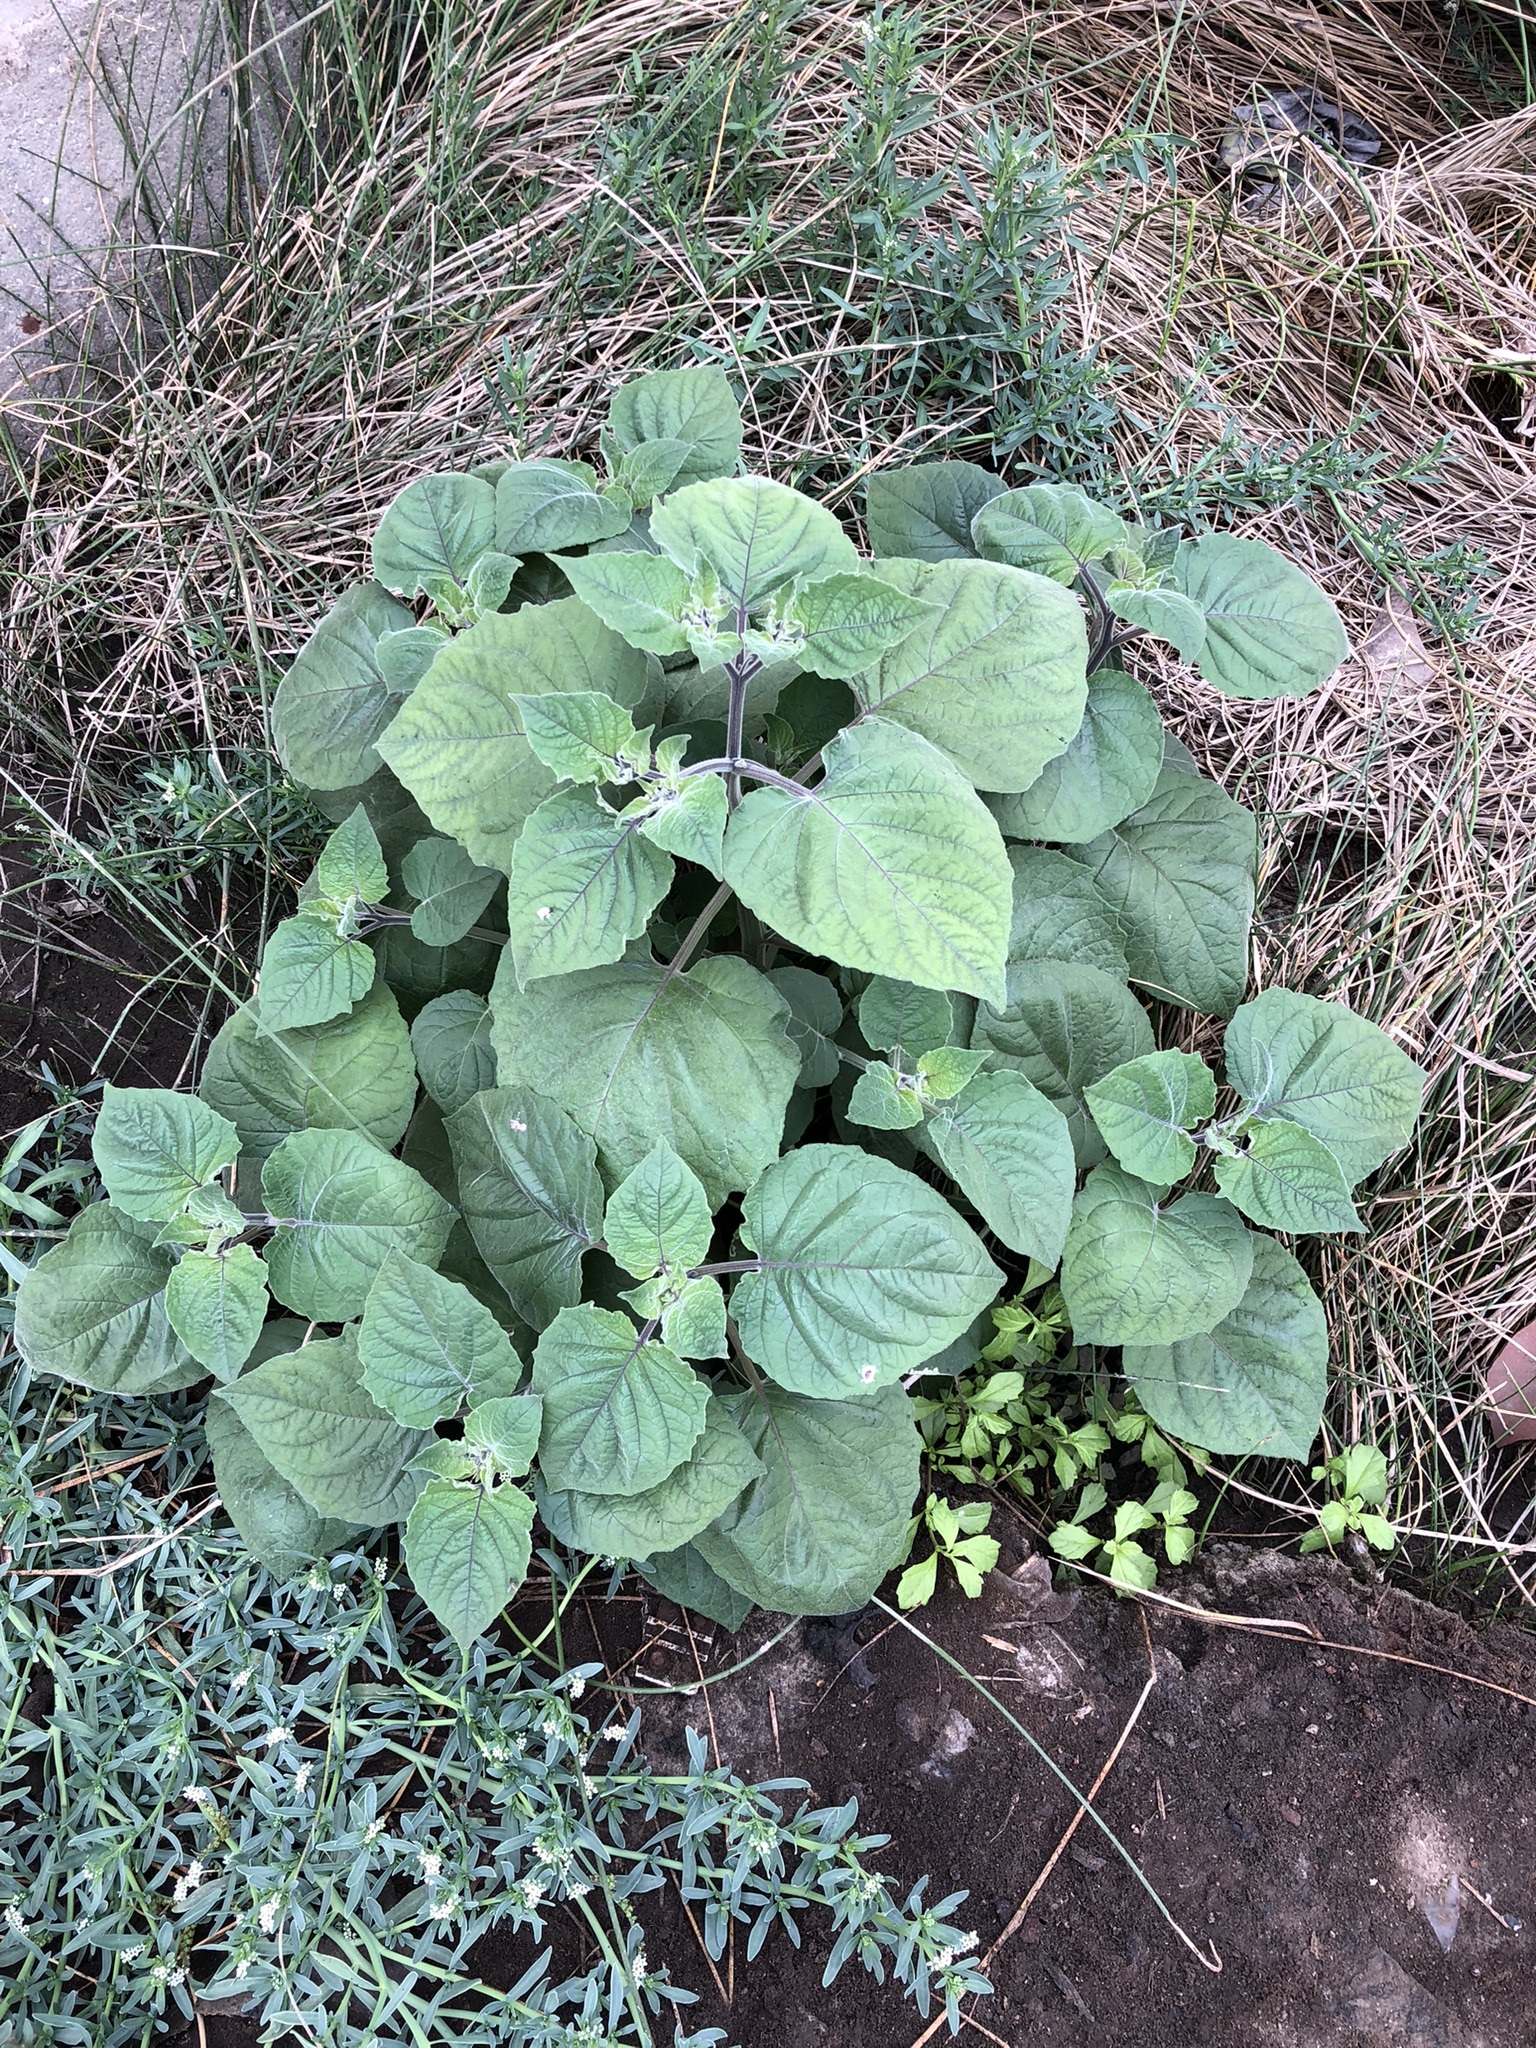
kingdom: Plantae
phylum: Tracheophyta
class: Magnoliopsida
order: Solanales
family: Solanaceae
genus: Physalis
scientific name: Physalis peruviana
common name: Cape-gooseberry
